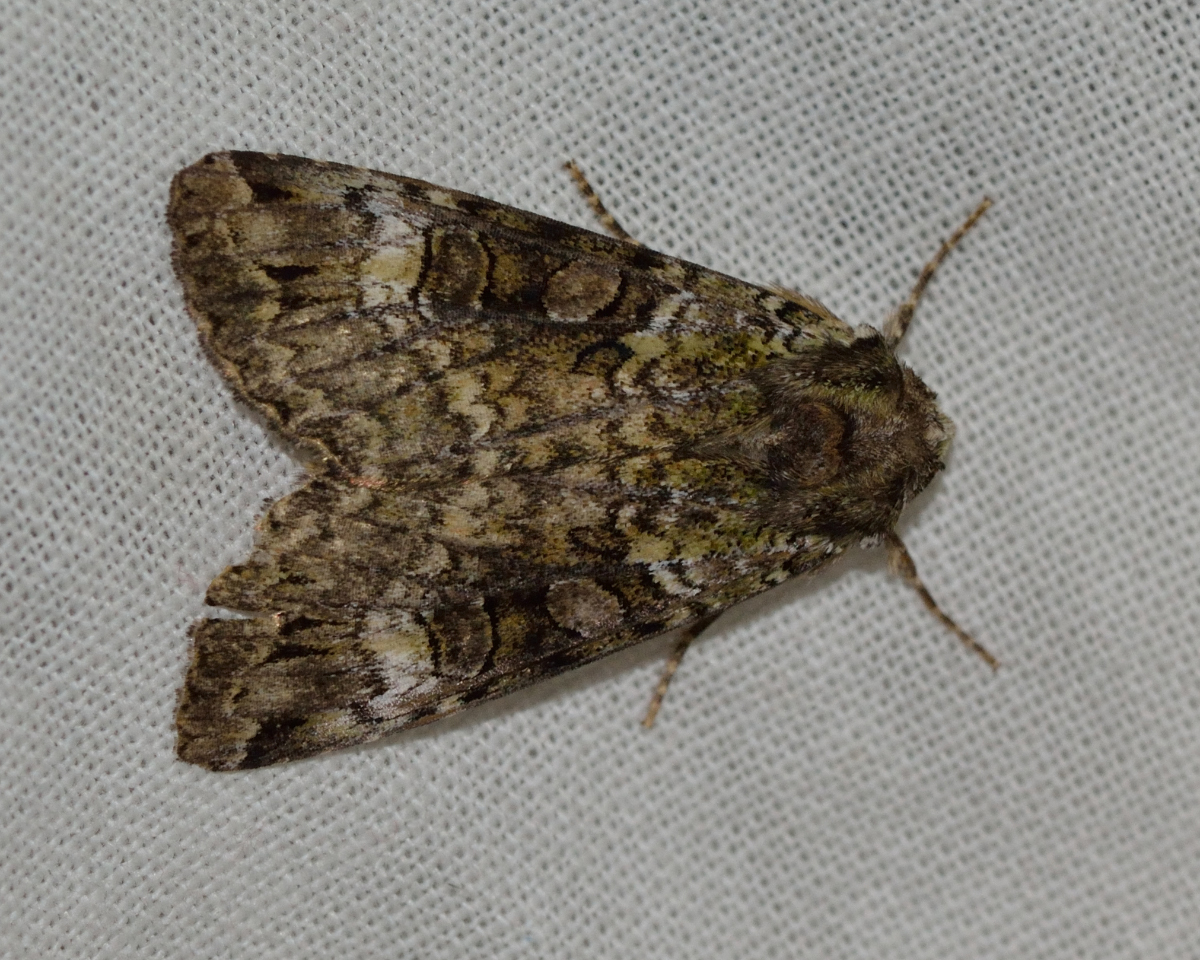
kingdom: Animalia
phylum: Arthropoda
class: Insecta
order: Lepidoptera
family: Noctuidae
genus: Anaplectoides
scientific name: Anaplectoides prasina
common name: Green arches
